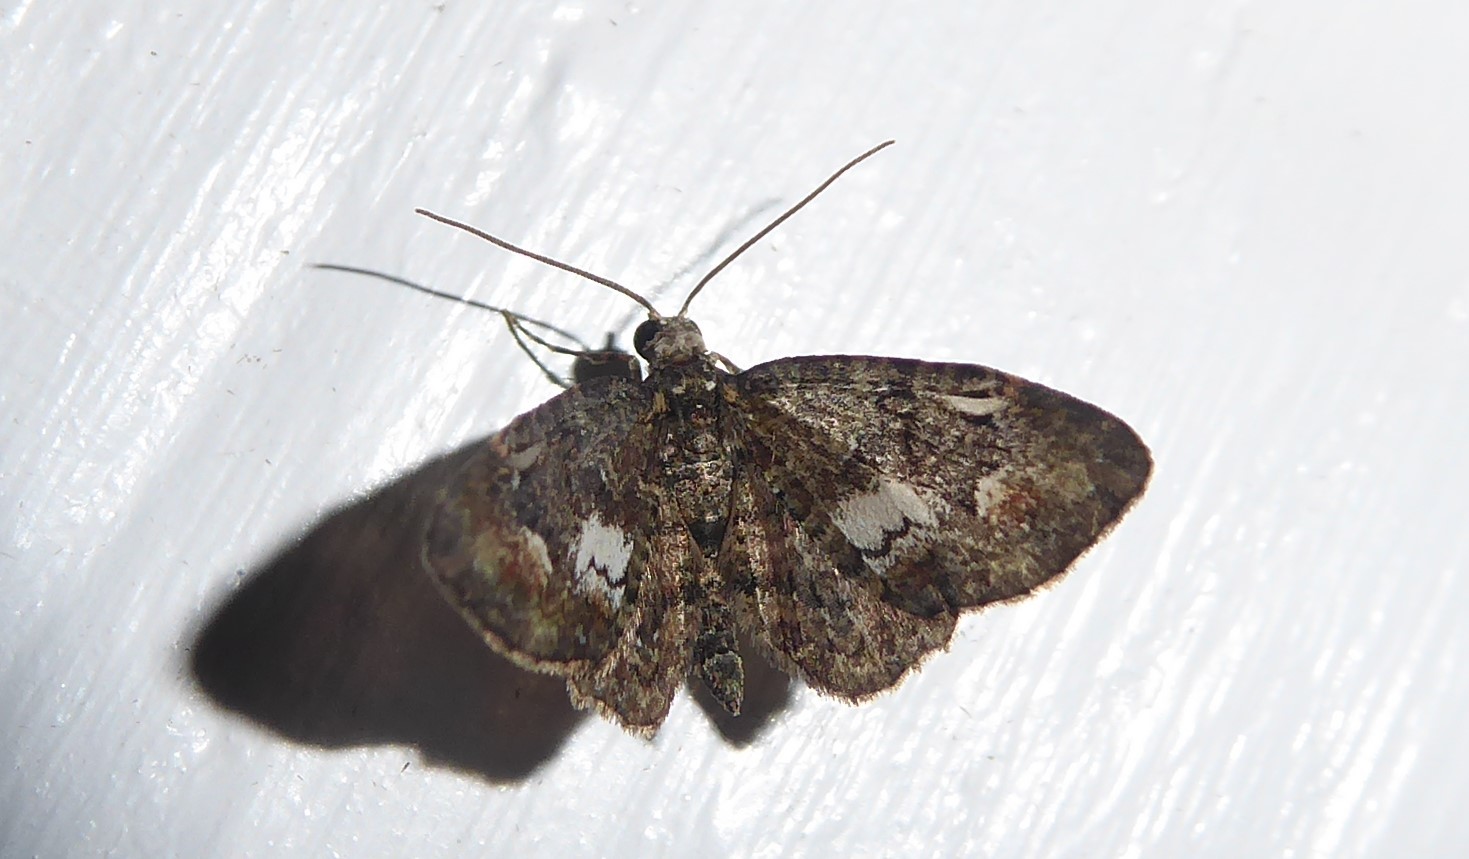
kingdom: Animalia
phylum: Arthropoda
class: Insecta
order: Lepidoptera
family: Geometridae
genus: Pasiphilodes
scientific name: Pasiphilodes testulata
